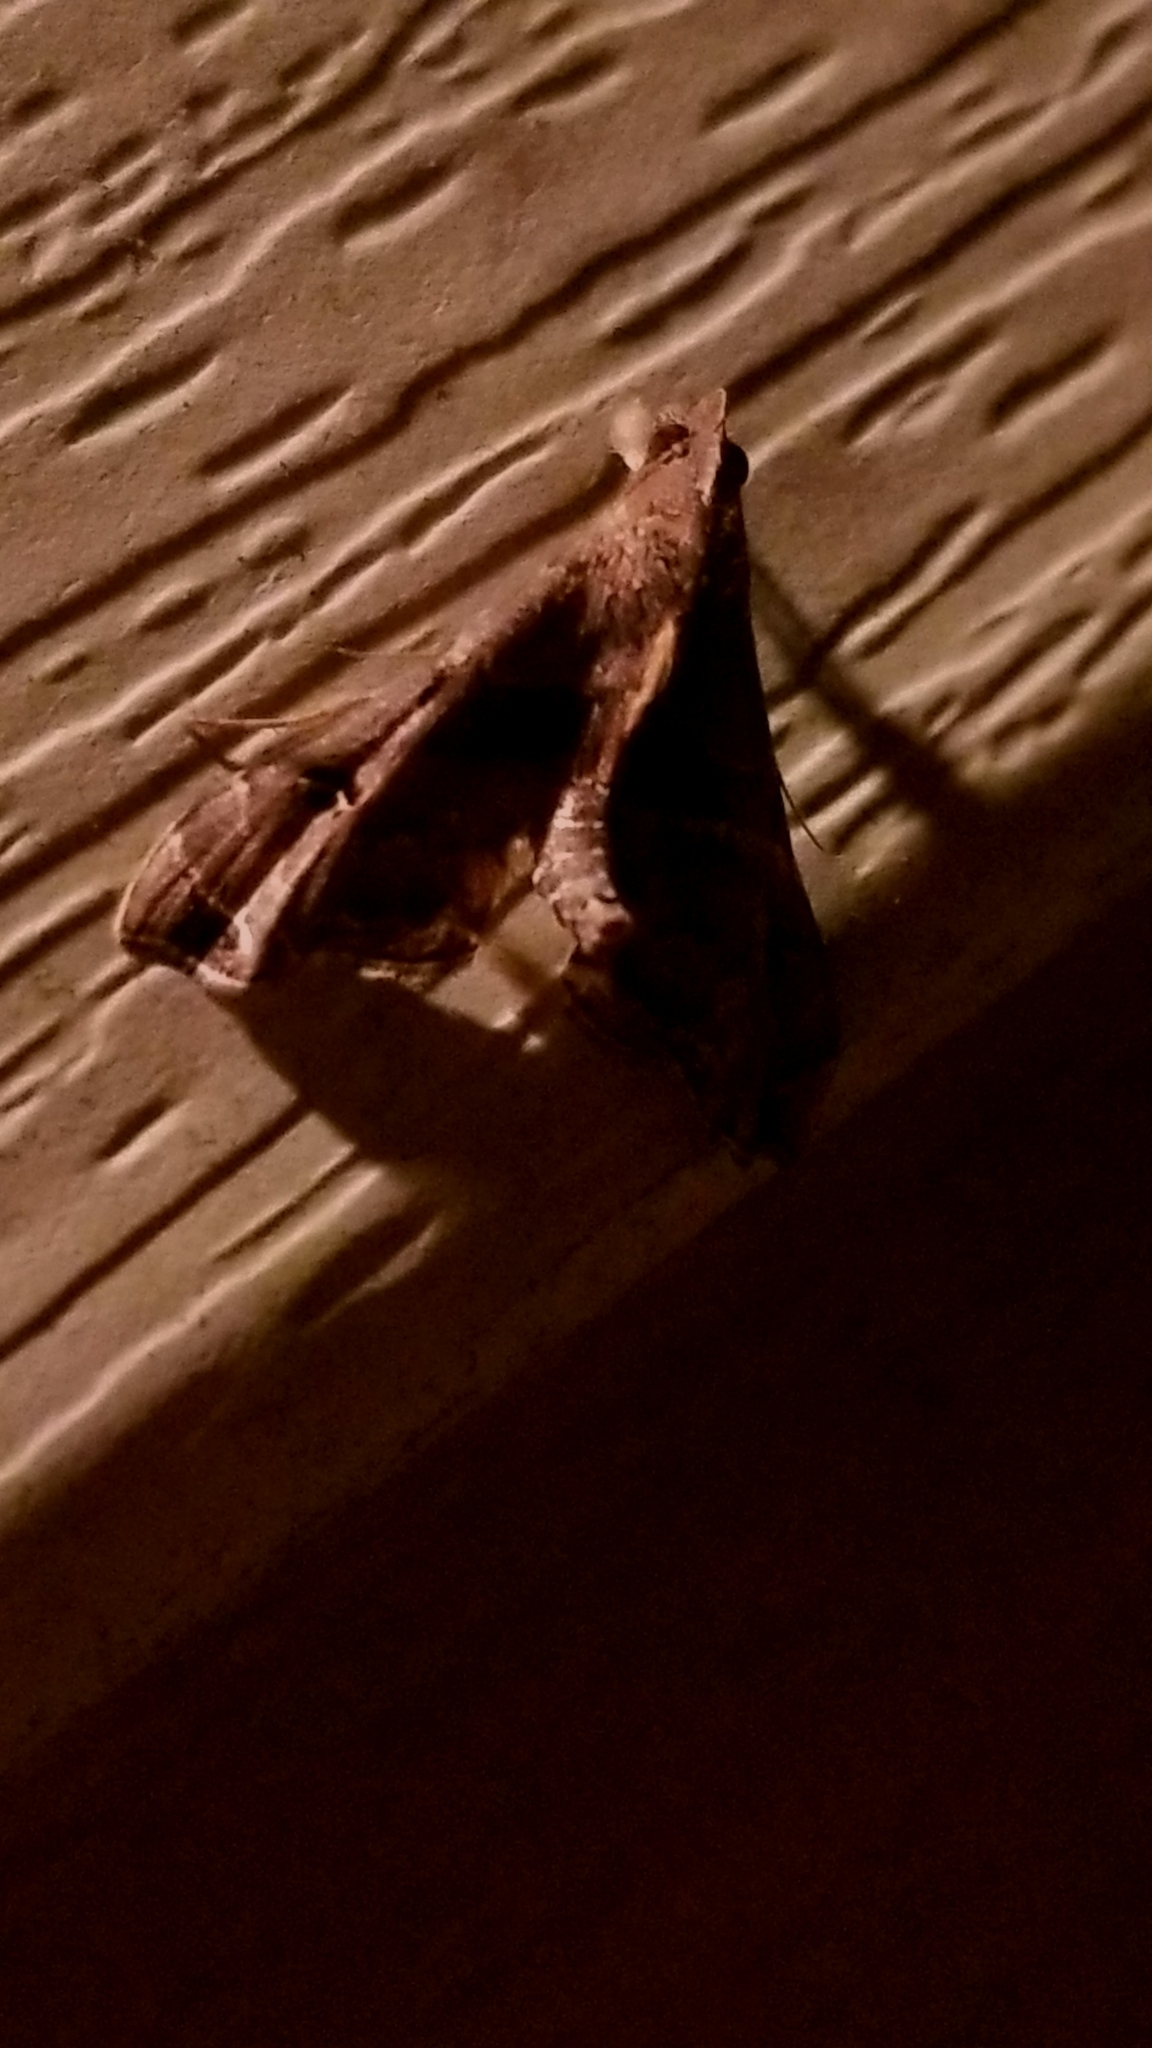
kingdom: Animalia
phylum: Arthropoda
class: Insecta
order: Lepidoptera
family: Erebidae
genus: Palthis
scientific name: Palthis asopialis
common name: Faint-spotted palthis moth
